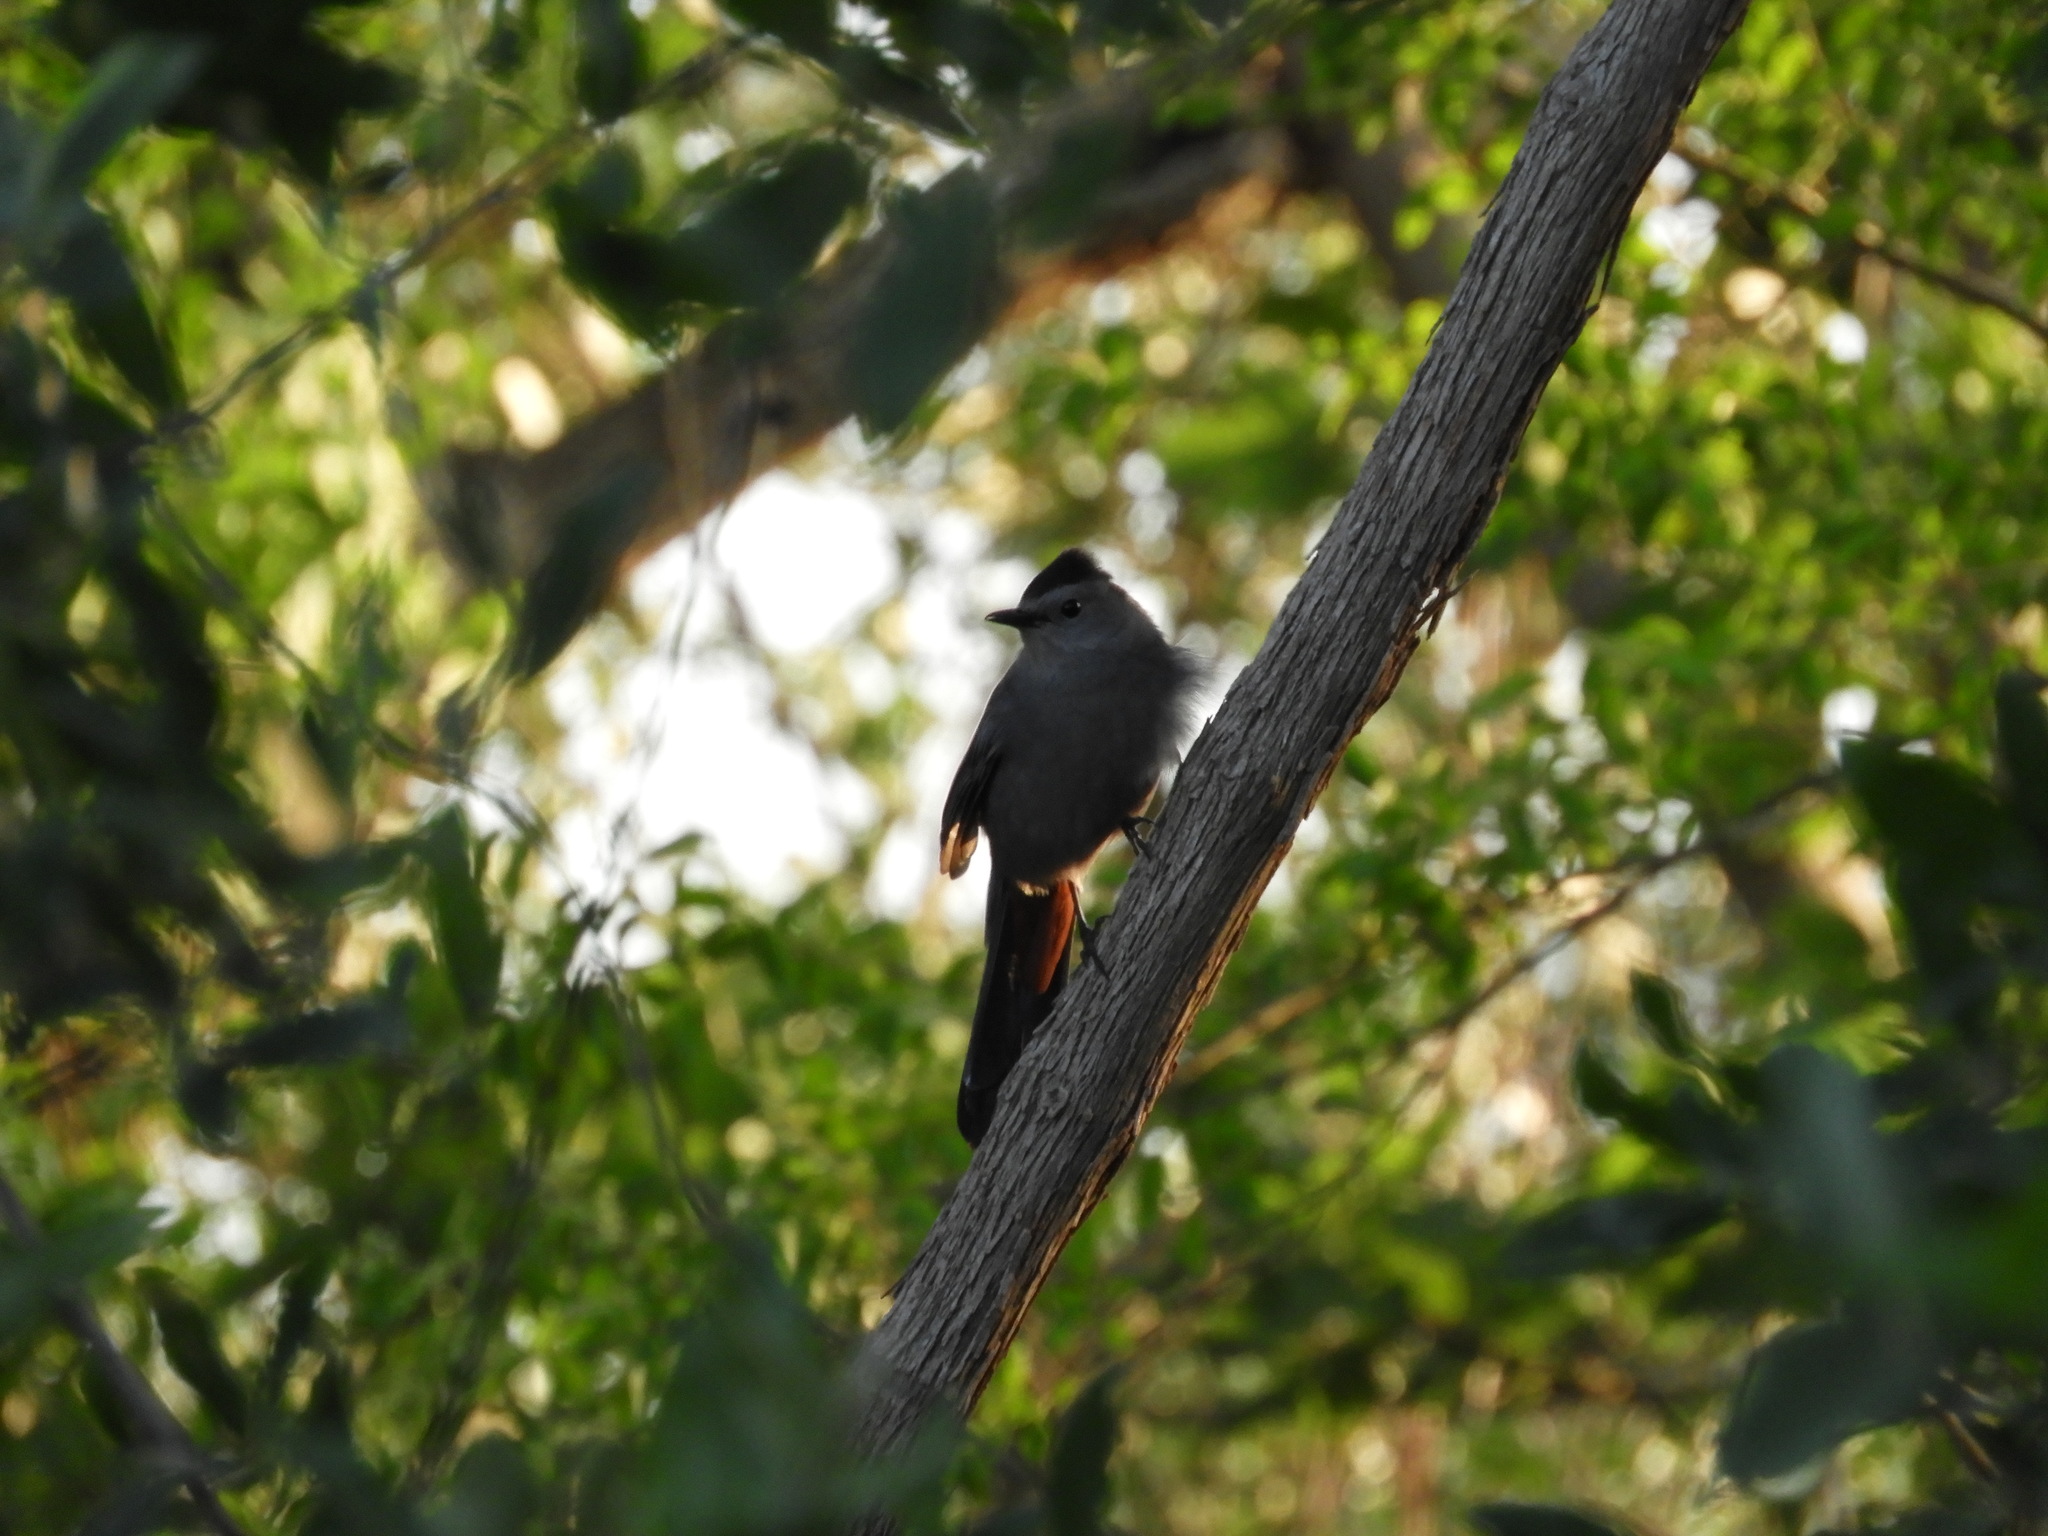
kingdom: Animalia
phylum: Chordata
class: Aves
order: Passeriformes
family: Mimidae
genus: Dumetella
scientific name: Dumetella carolinensis
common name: Gray catbird
